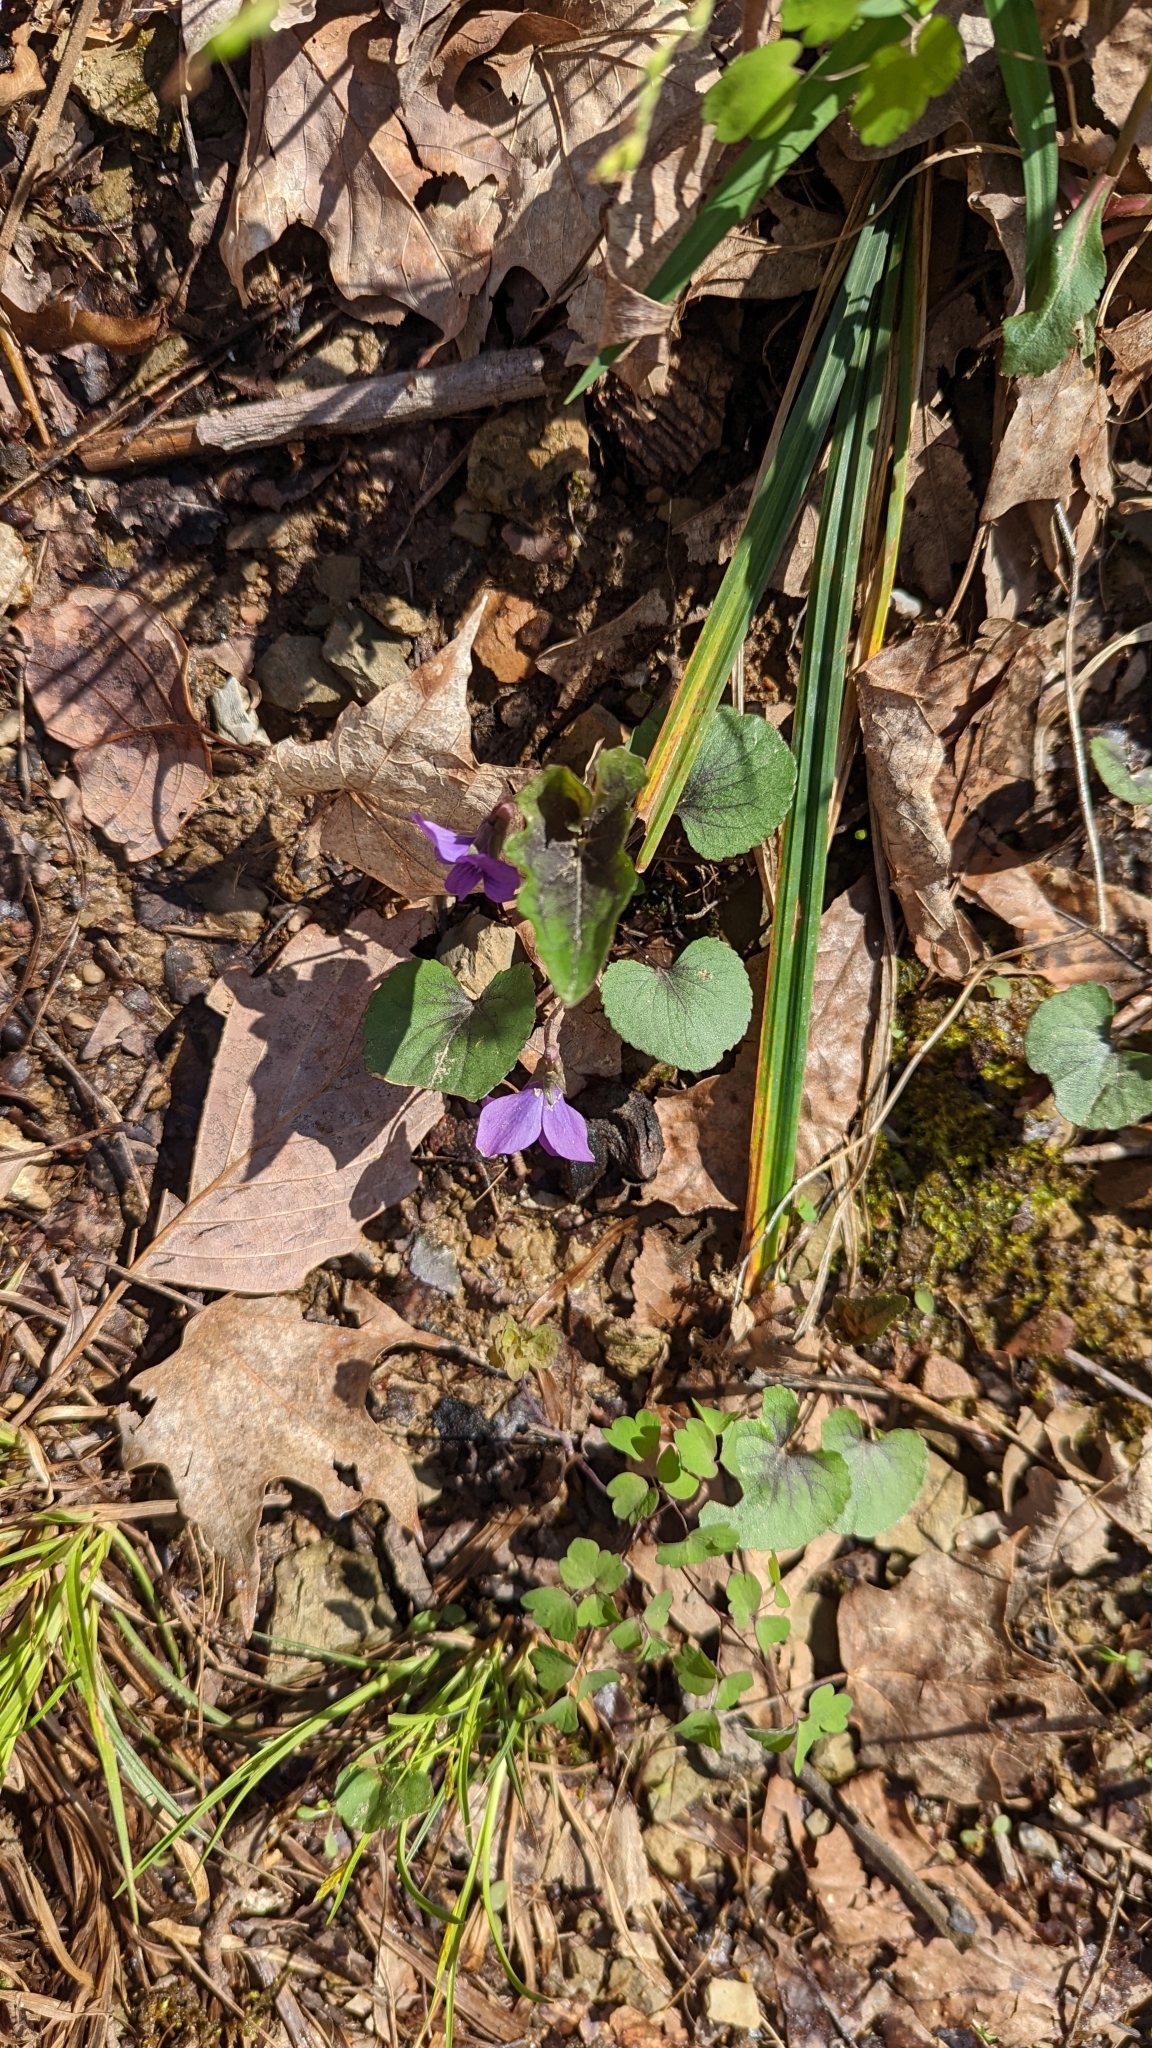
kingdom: Plantae
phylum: Tracheophyta
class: Magnoliopsida
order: Malpighiales
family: Violaceae
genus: Viola
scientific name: Viola palmata
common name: Early blue violet
